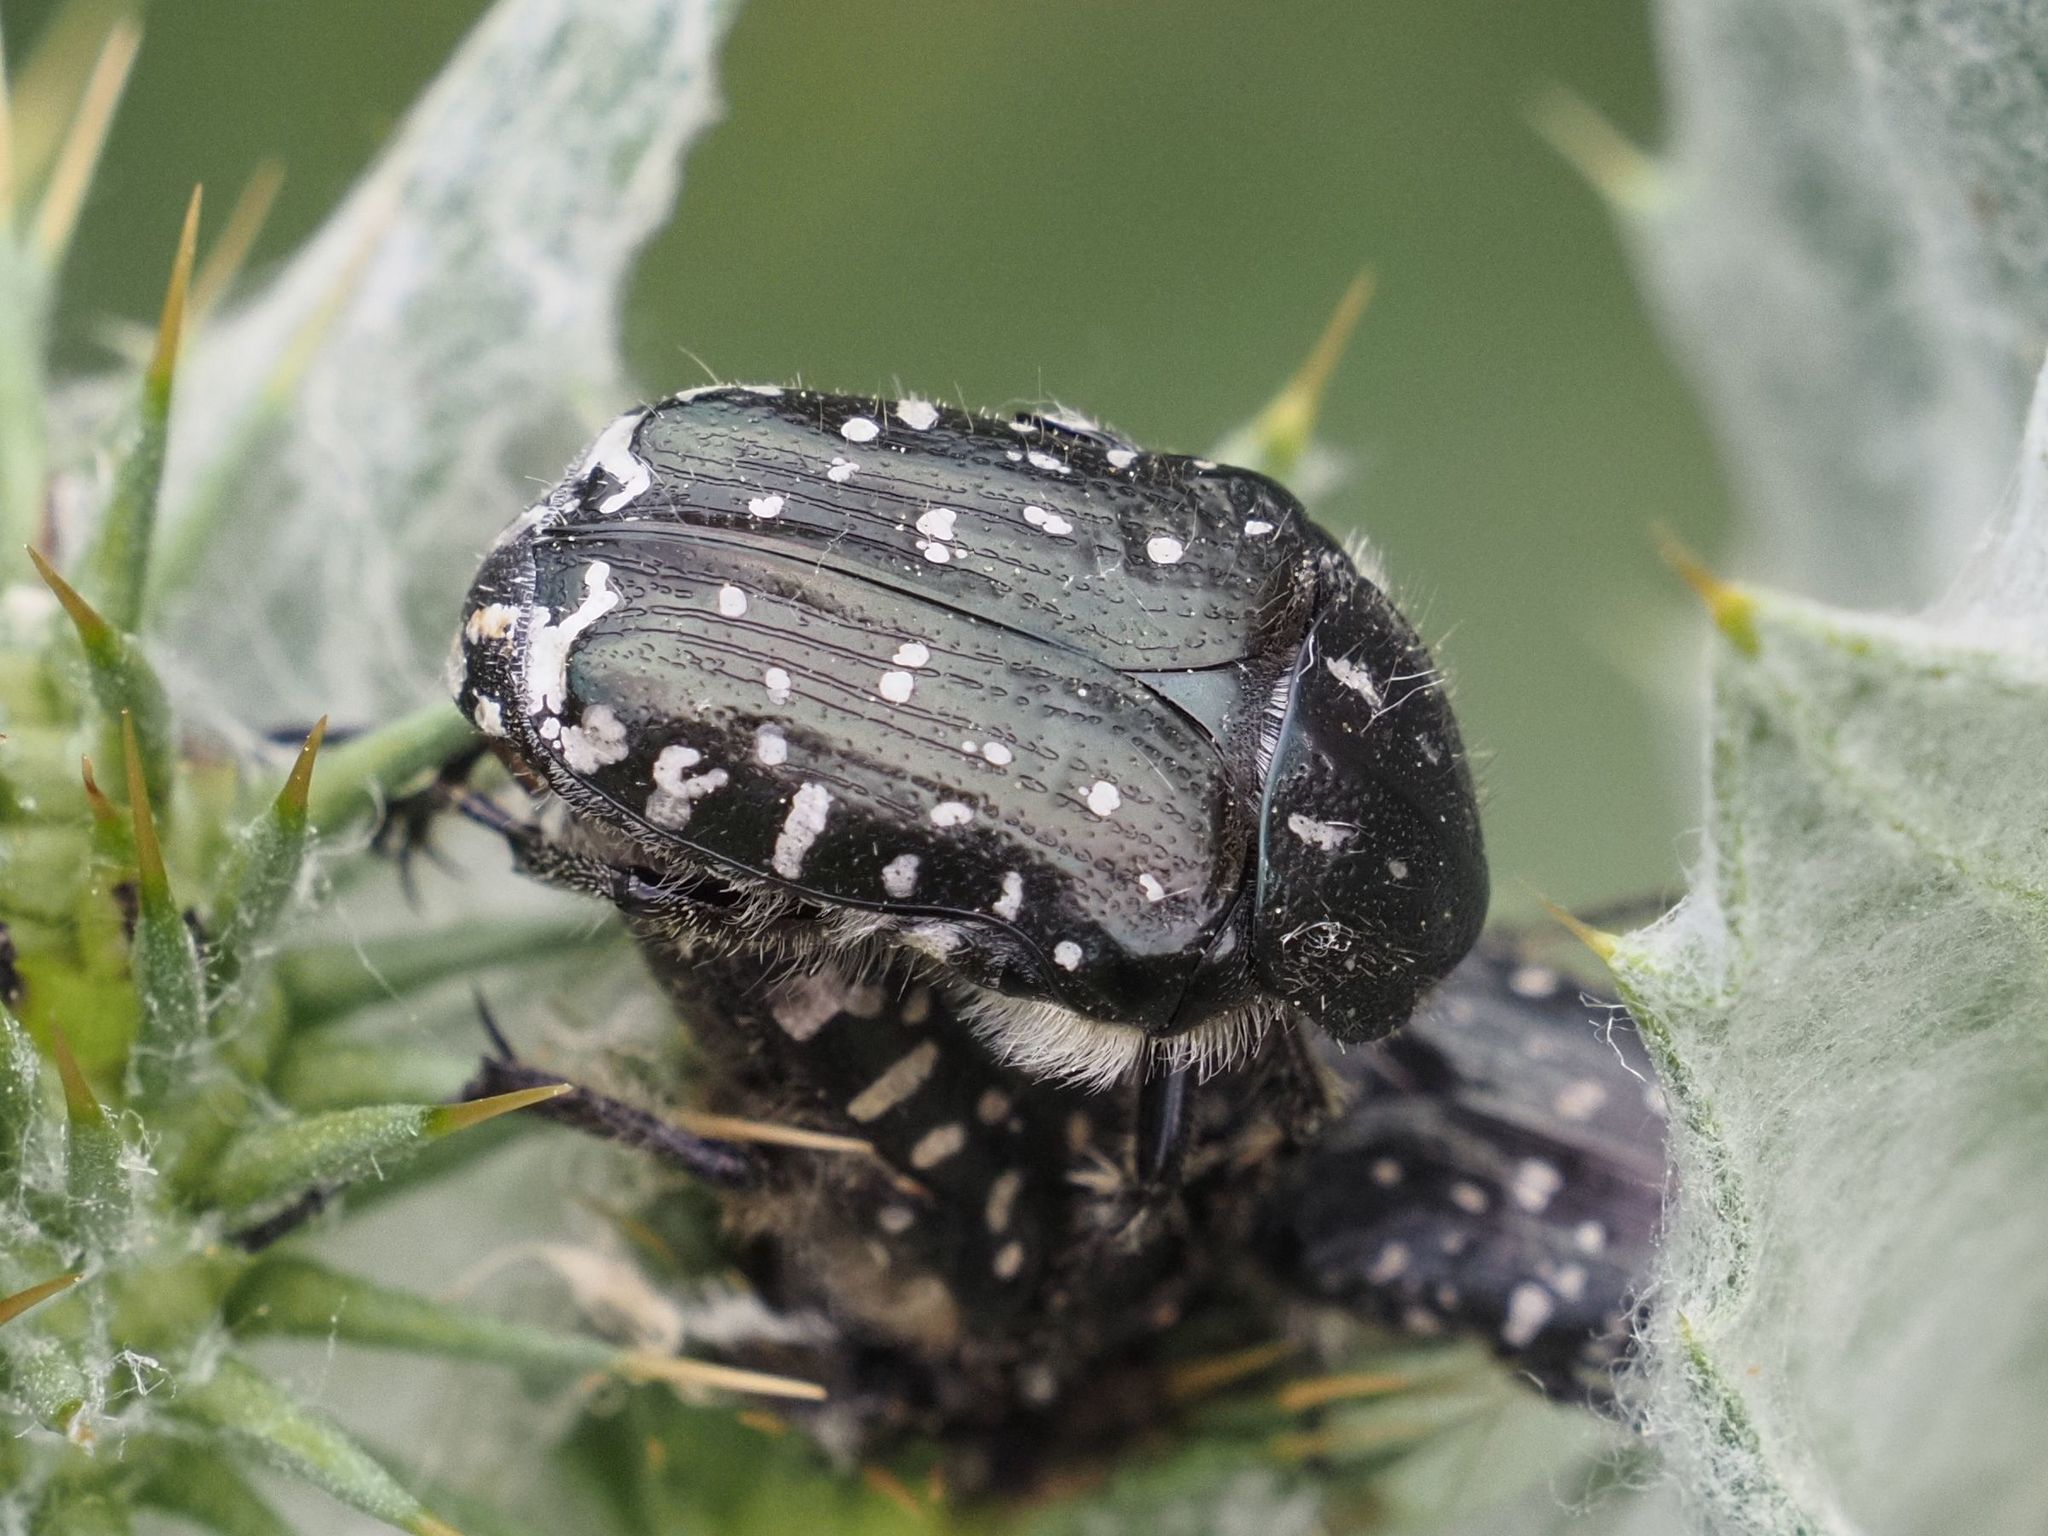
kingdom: Animalia
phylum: Arthropoda
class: Insecta
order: Coleoptera
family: Scarabaeidae
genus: Oxythyrea
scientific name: Oxythyrea funesta
